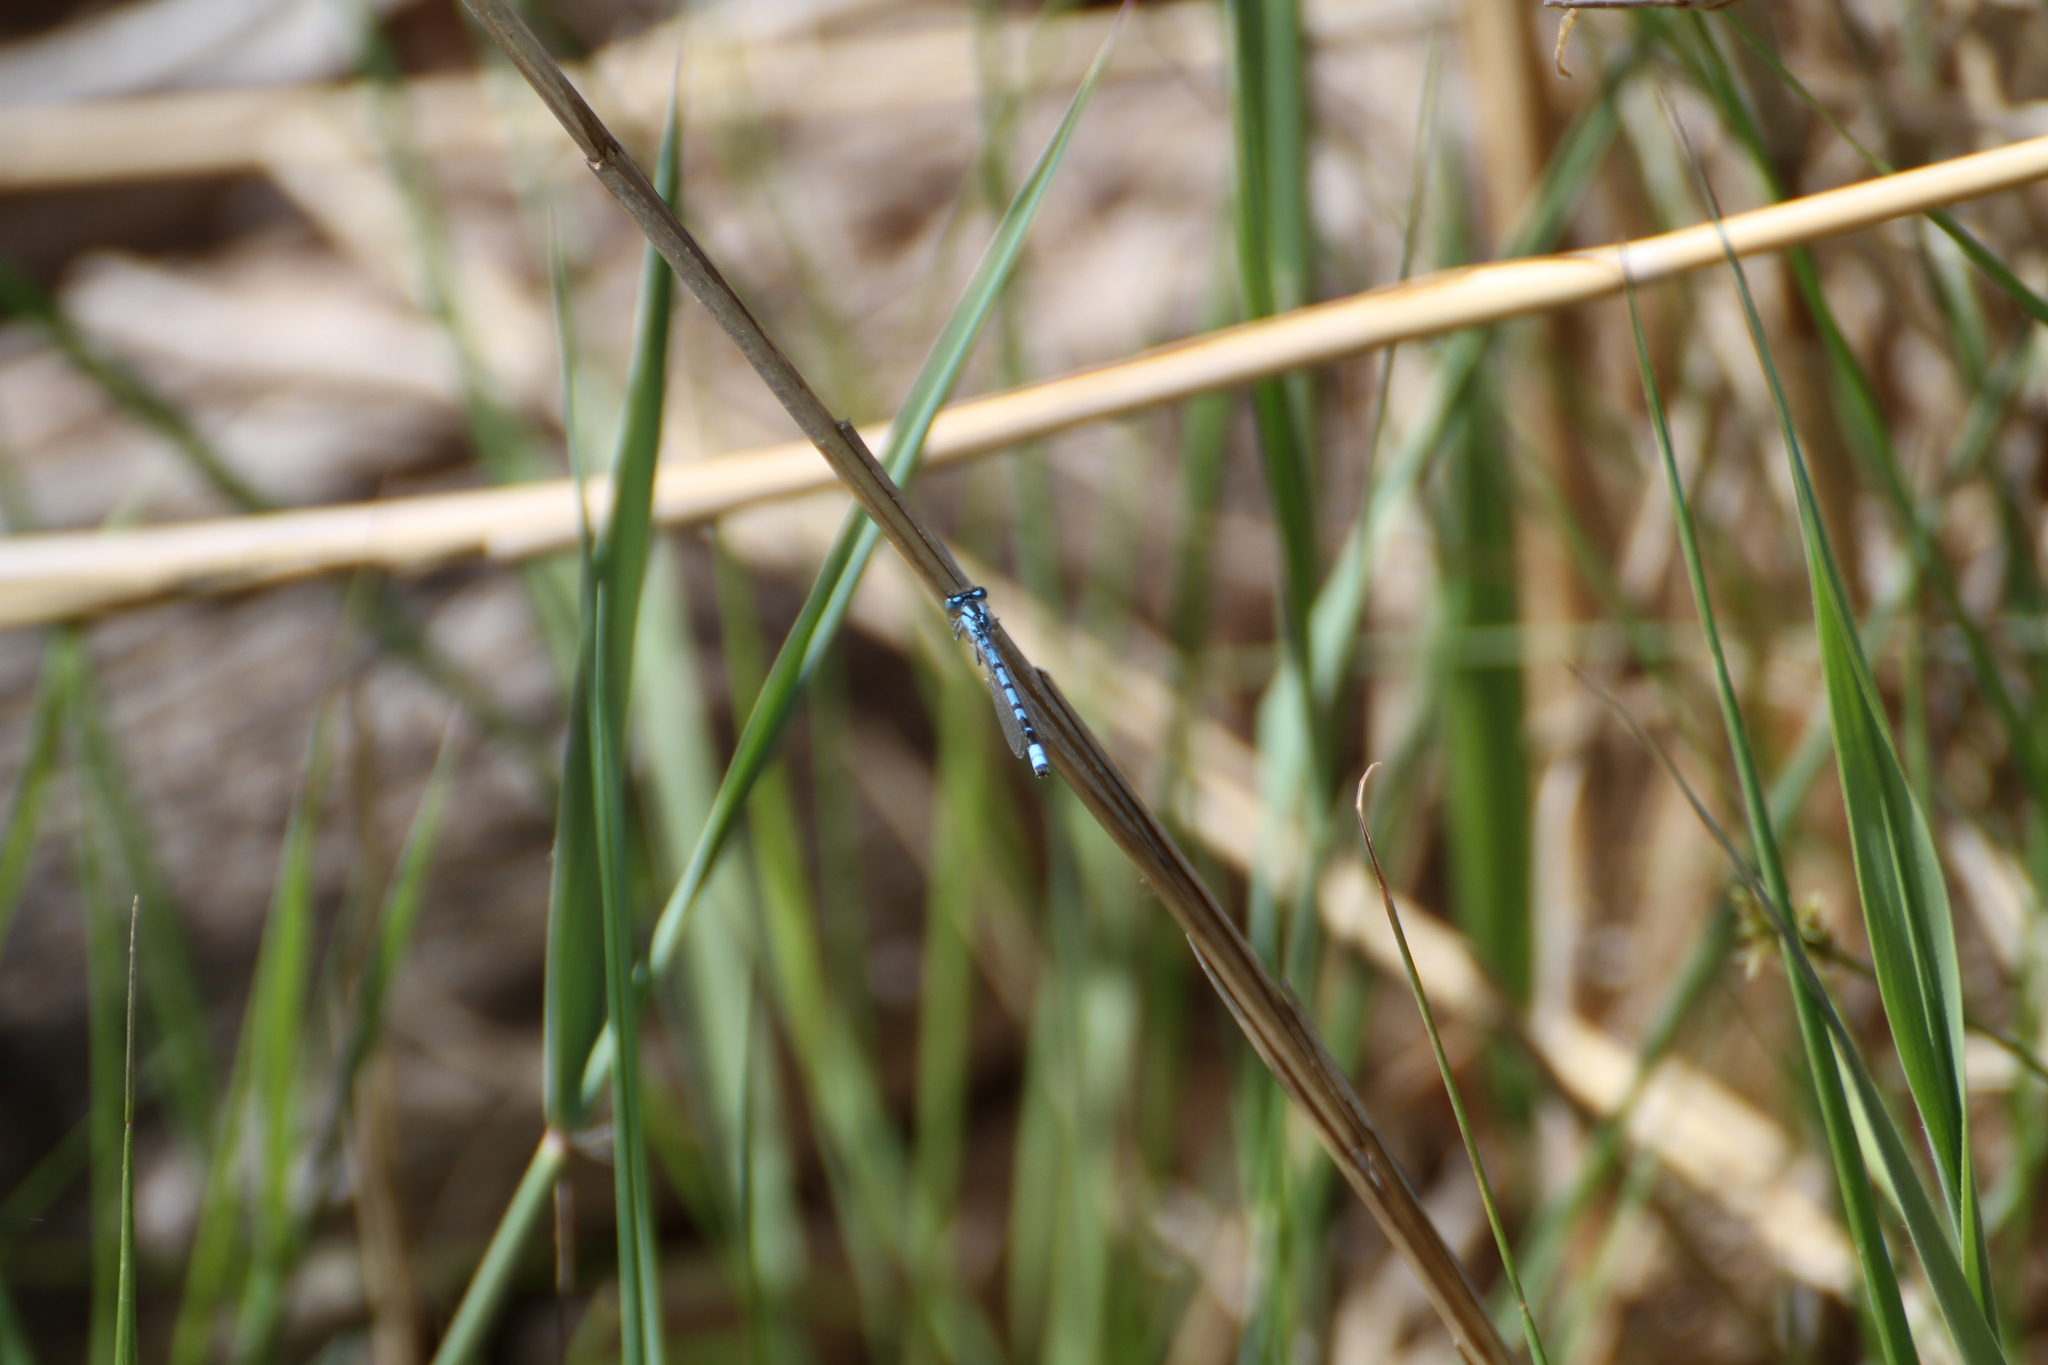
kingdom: Animalia
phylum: Arthropoda
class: Insecta
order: Odonata
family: Coenagrionidae
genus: Enallagma
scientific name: Enallagma cyathigerum
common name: Common blue damselfly
